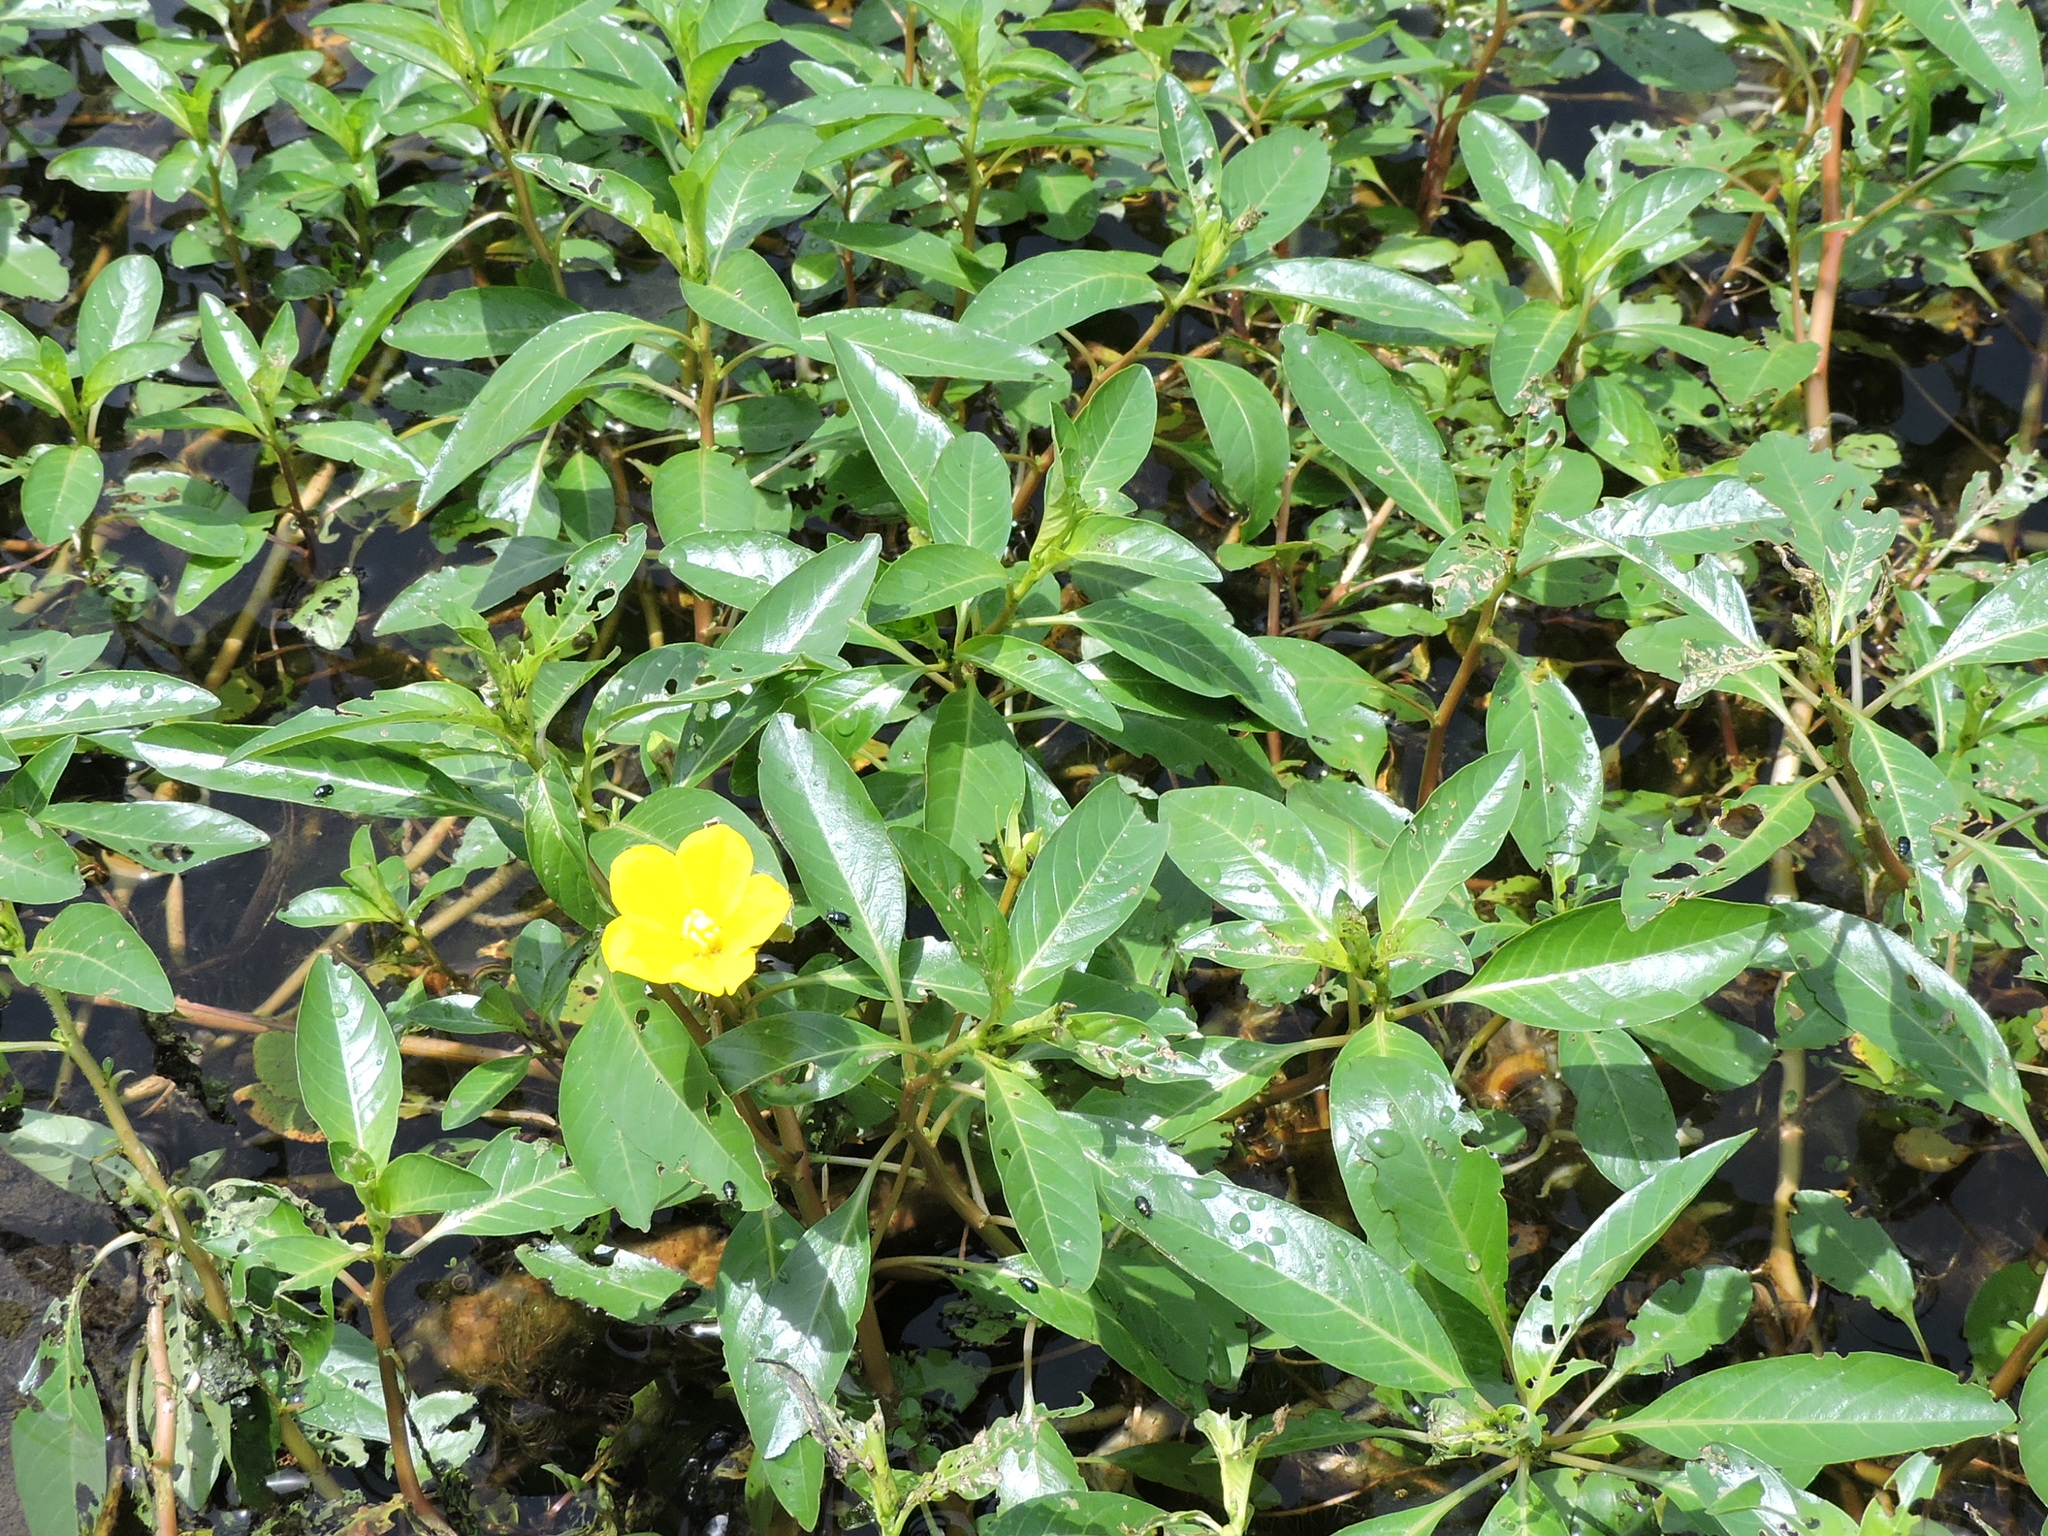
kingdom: Plantae
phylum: Tracheophyta
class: Magnoliopsida
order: Myrtales
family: Onagraceae
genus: Ludwigia
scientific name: Ludwigia peploides
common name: Floating primrose-willow
